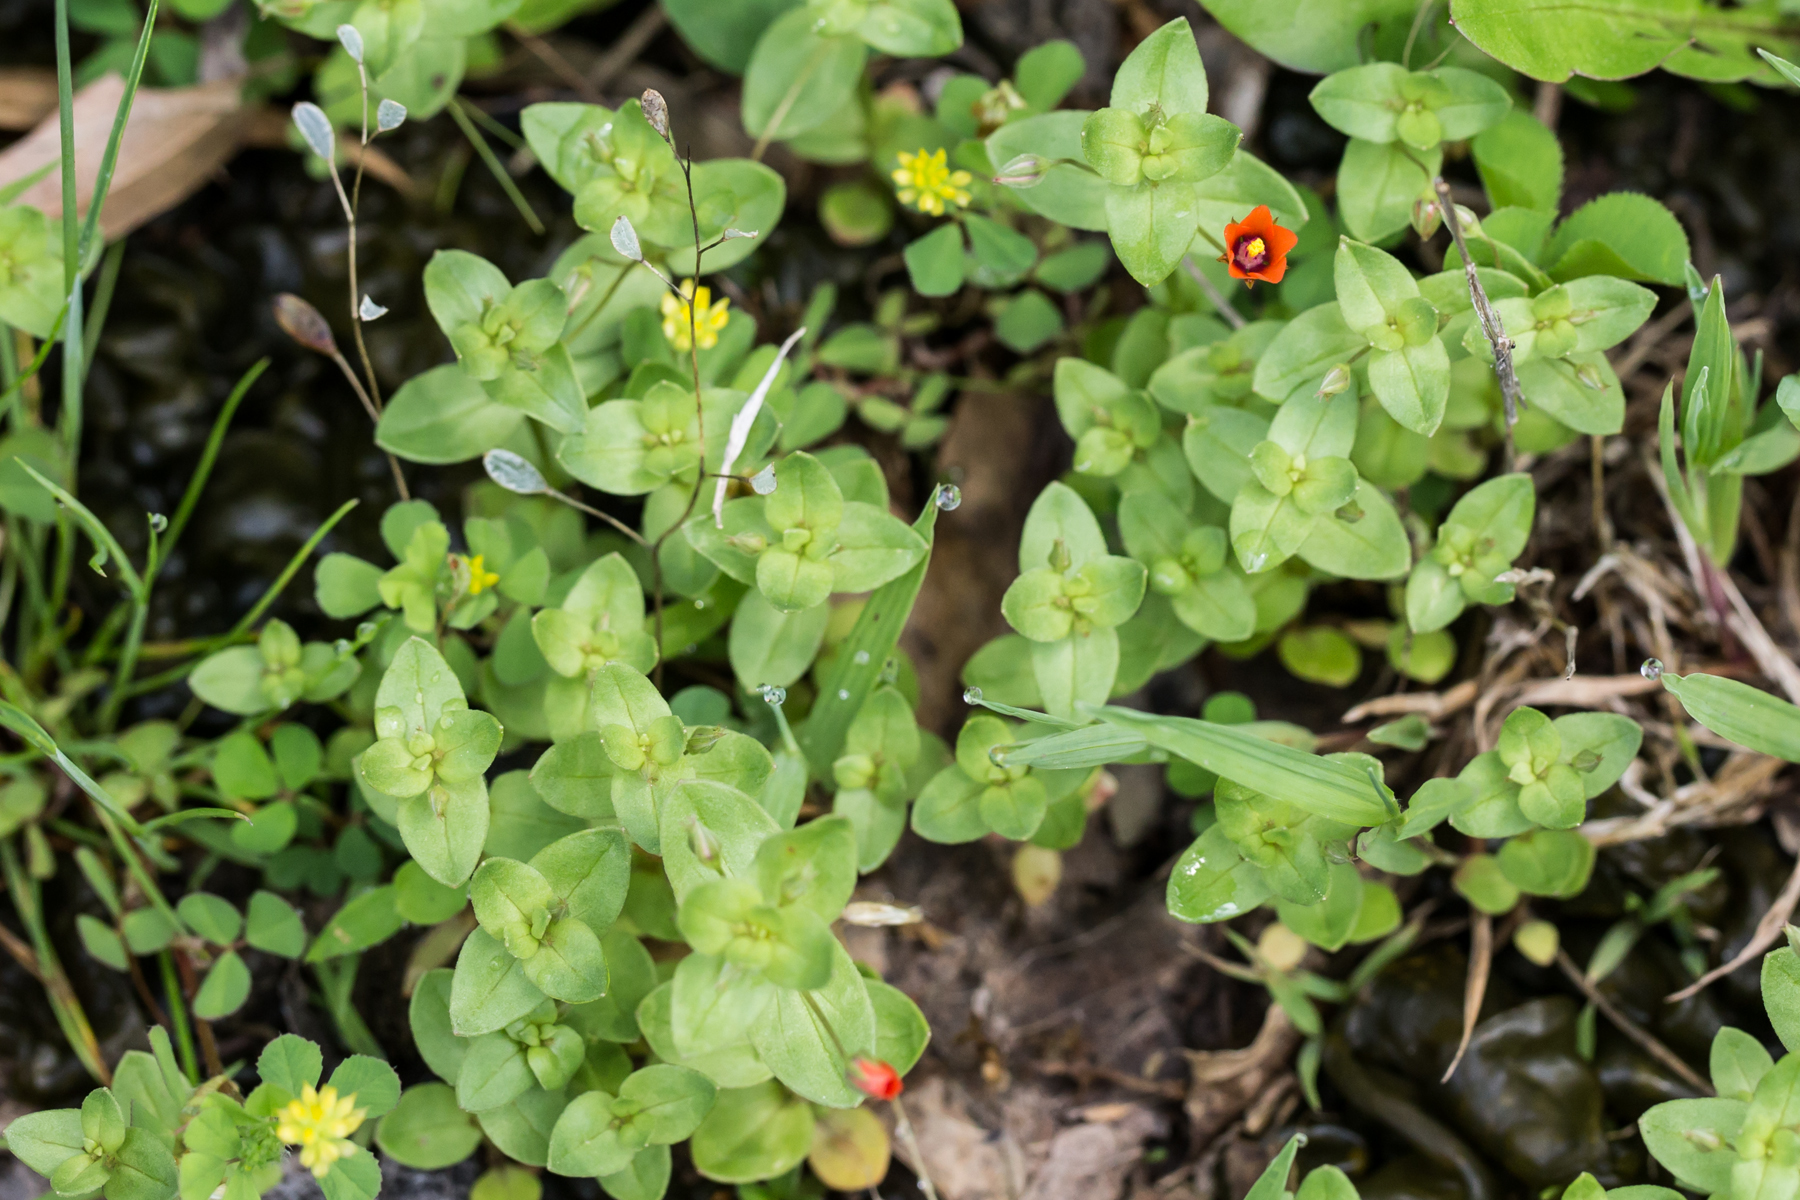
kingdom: Plantae
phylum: Tracheophyta
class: Magnoliopsida
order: Ericales
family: Primulaceae
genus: Lysimachia
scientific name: Lysimachia arvensis
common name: Scarlet pimpernel
